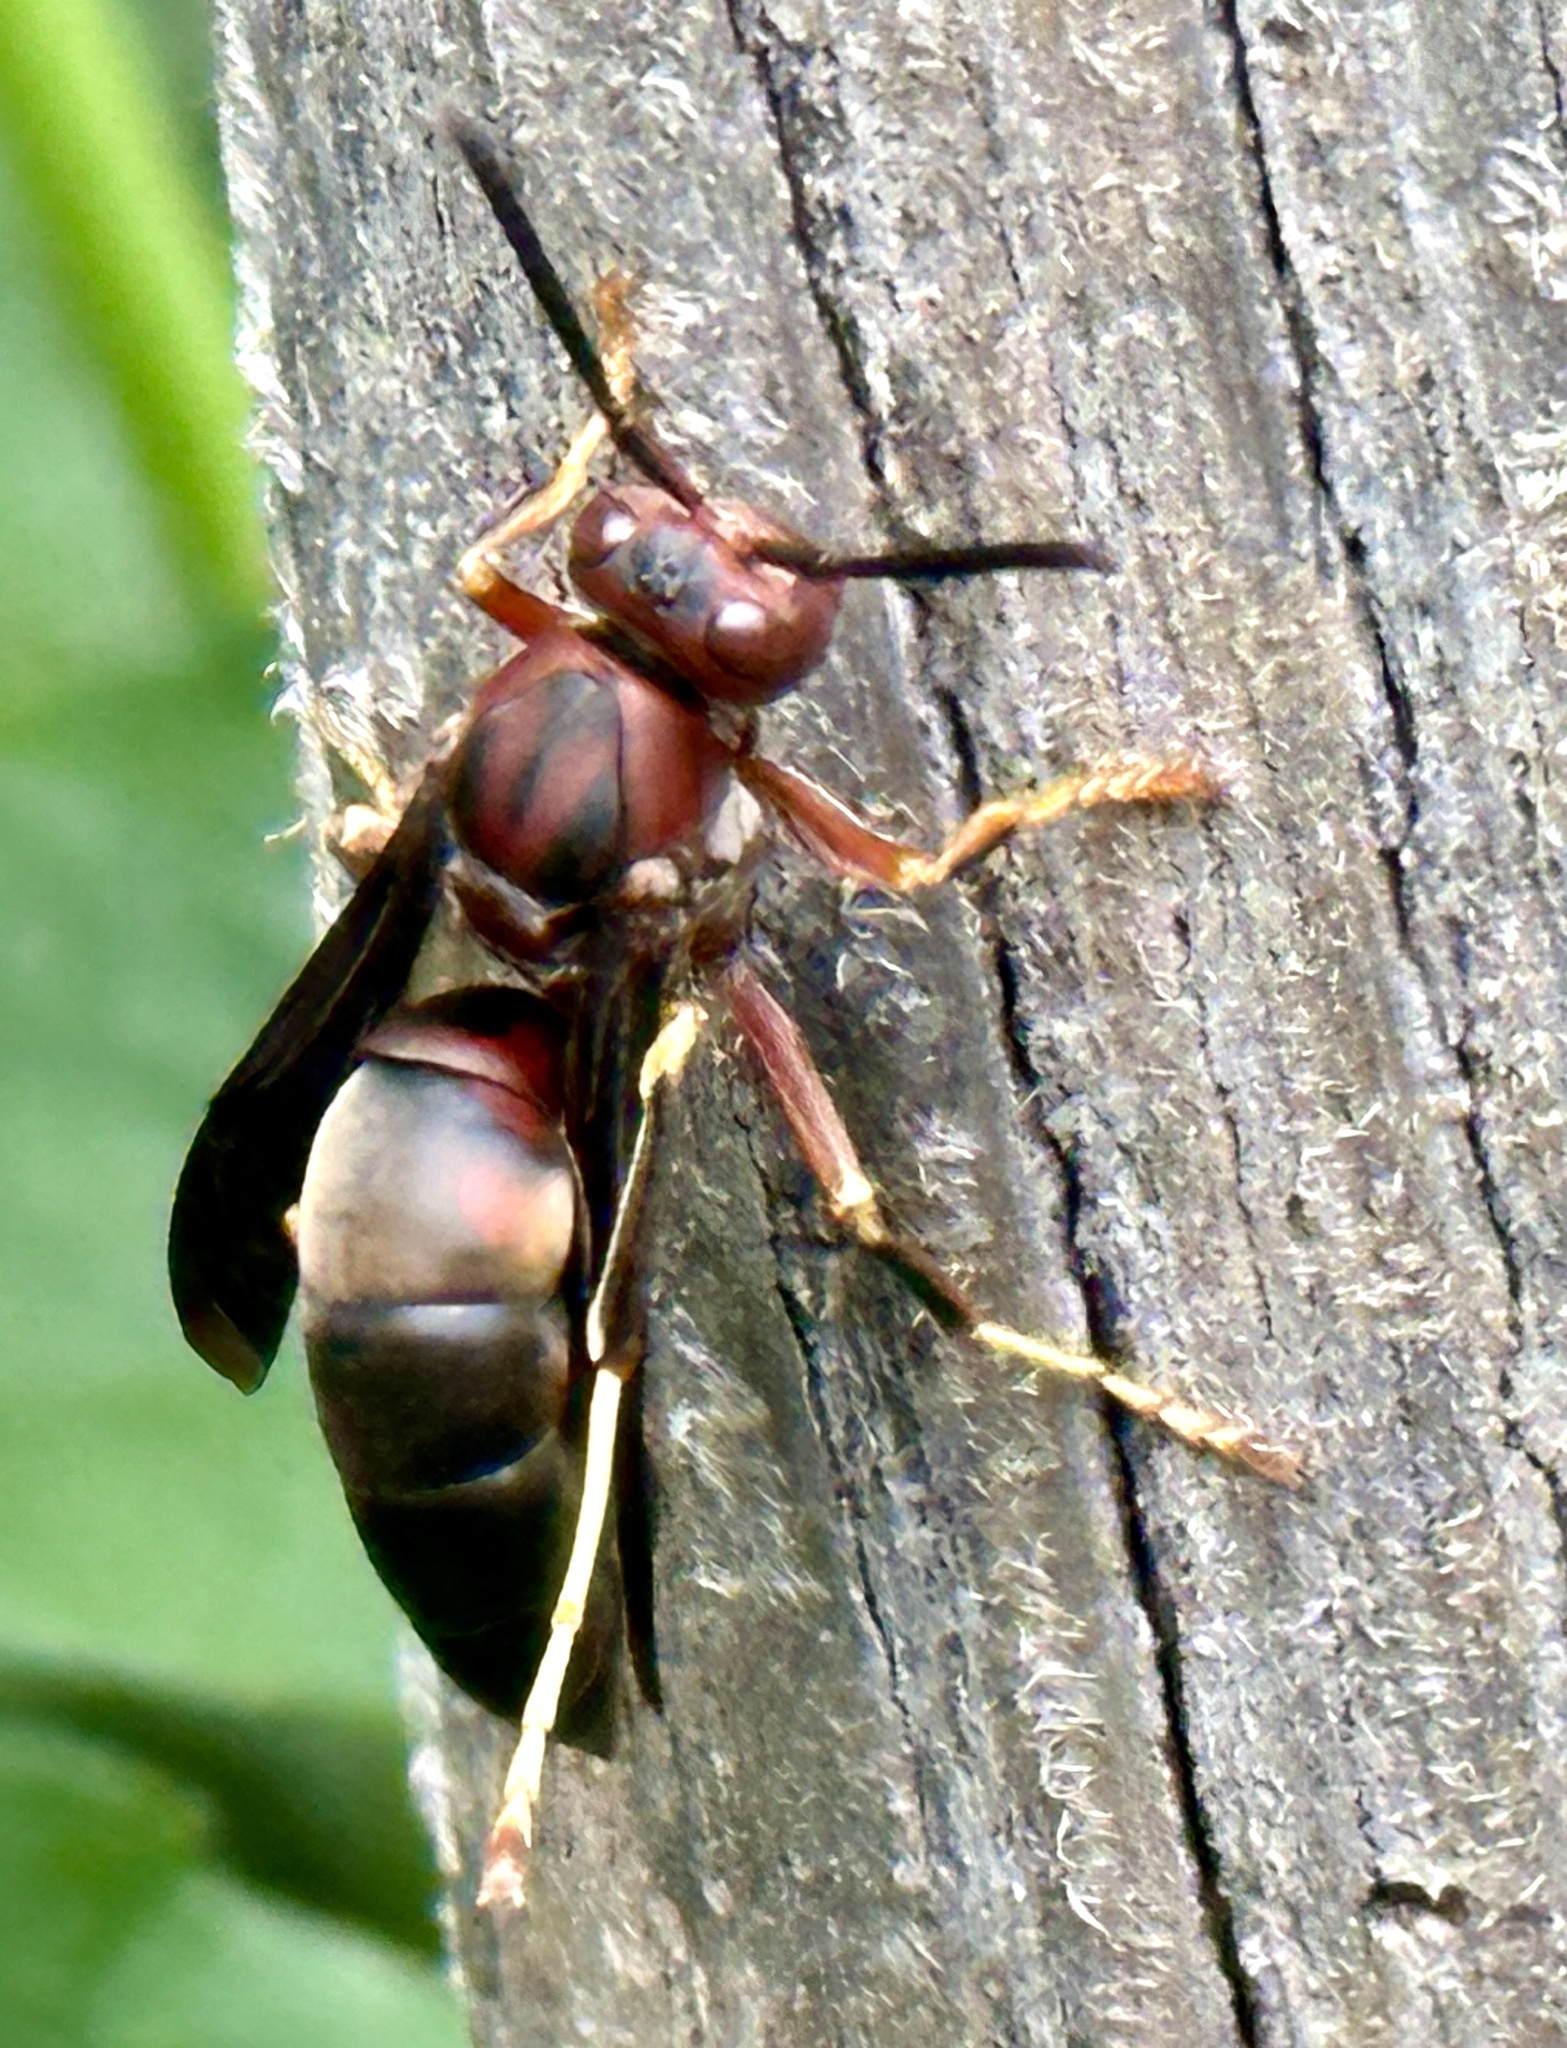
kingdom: Animalia
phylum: Arthropoda
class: Insecta
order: Hymenoptera
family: Eumenidae
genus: Polistes
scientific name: Polistes metricus
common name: Metric paper wasp
